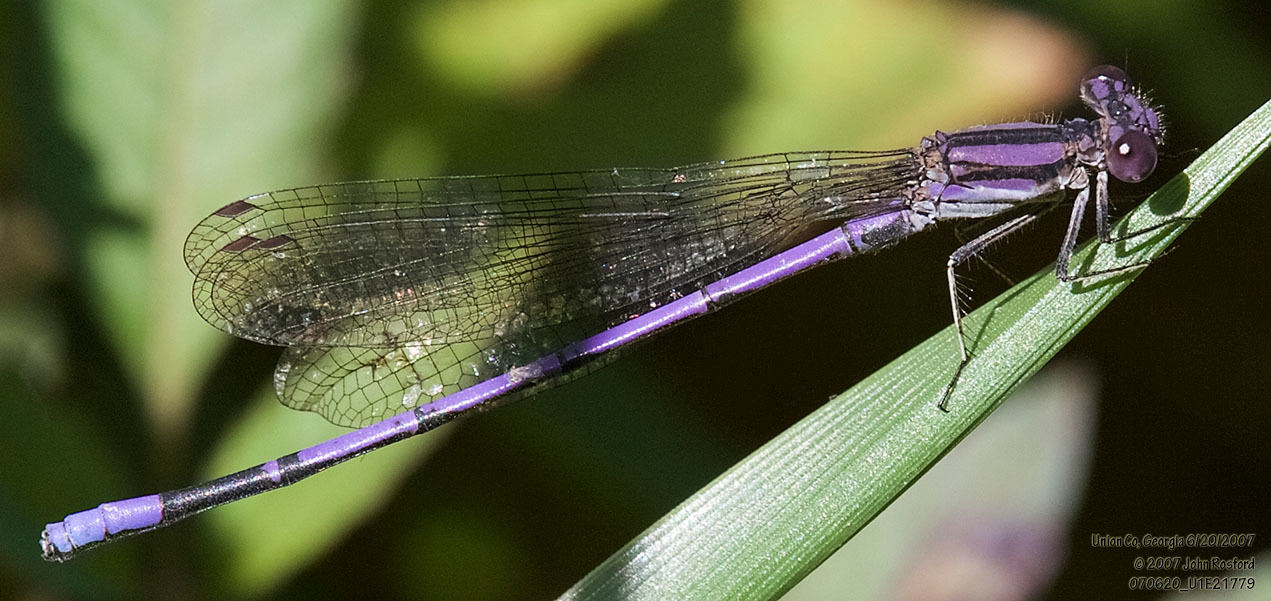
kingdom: Animalia
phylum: Arthropoda
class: Insecta
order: Odonata
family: Coenagrionidae
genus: Argia
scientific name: Argia fumipennis
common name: Variable dancer
